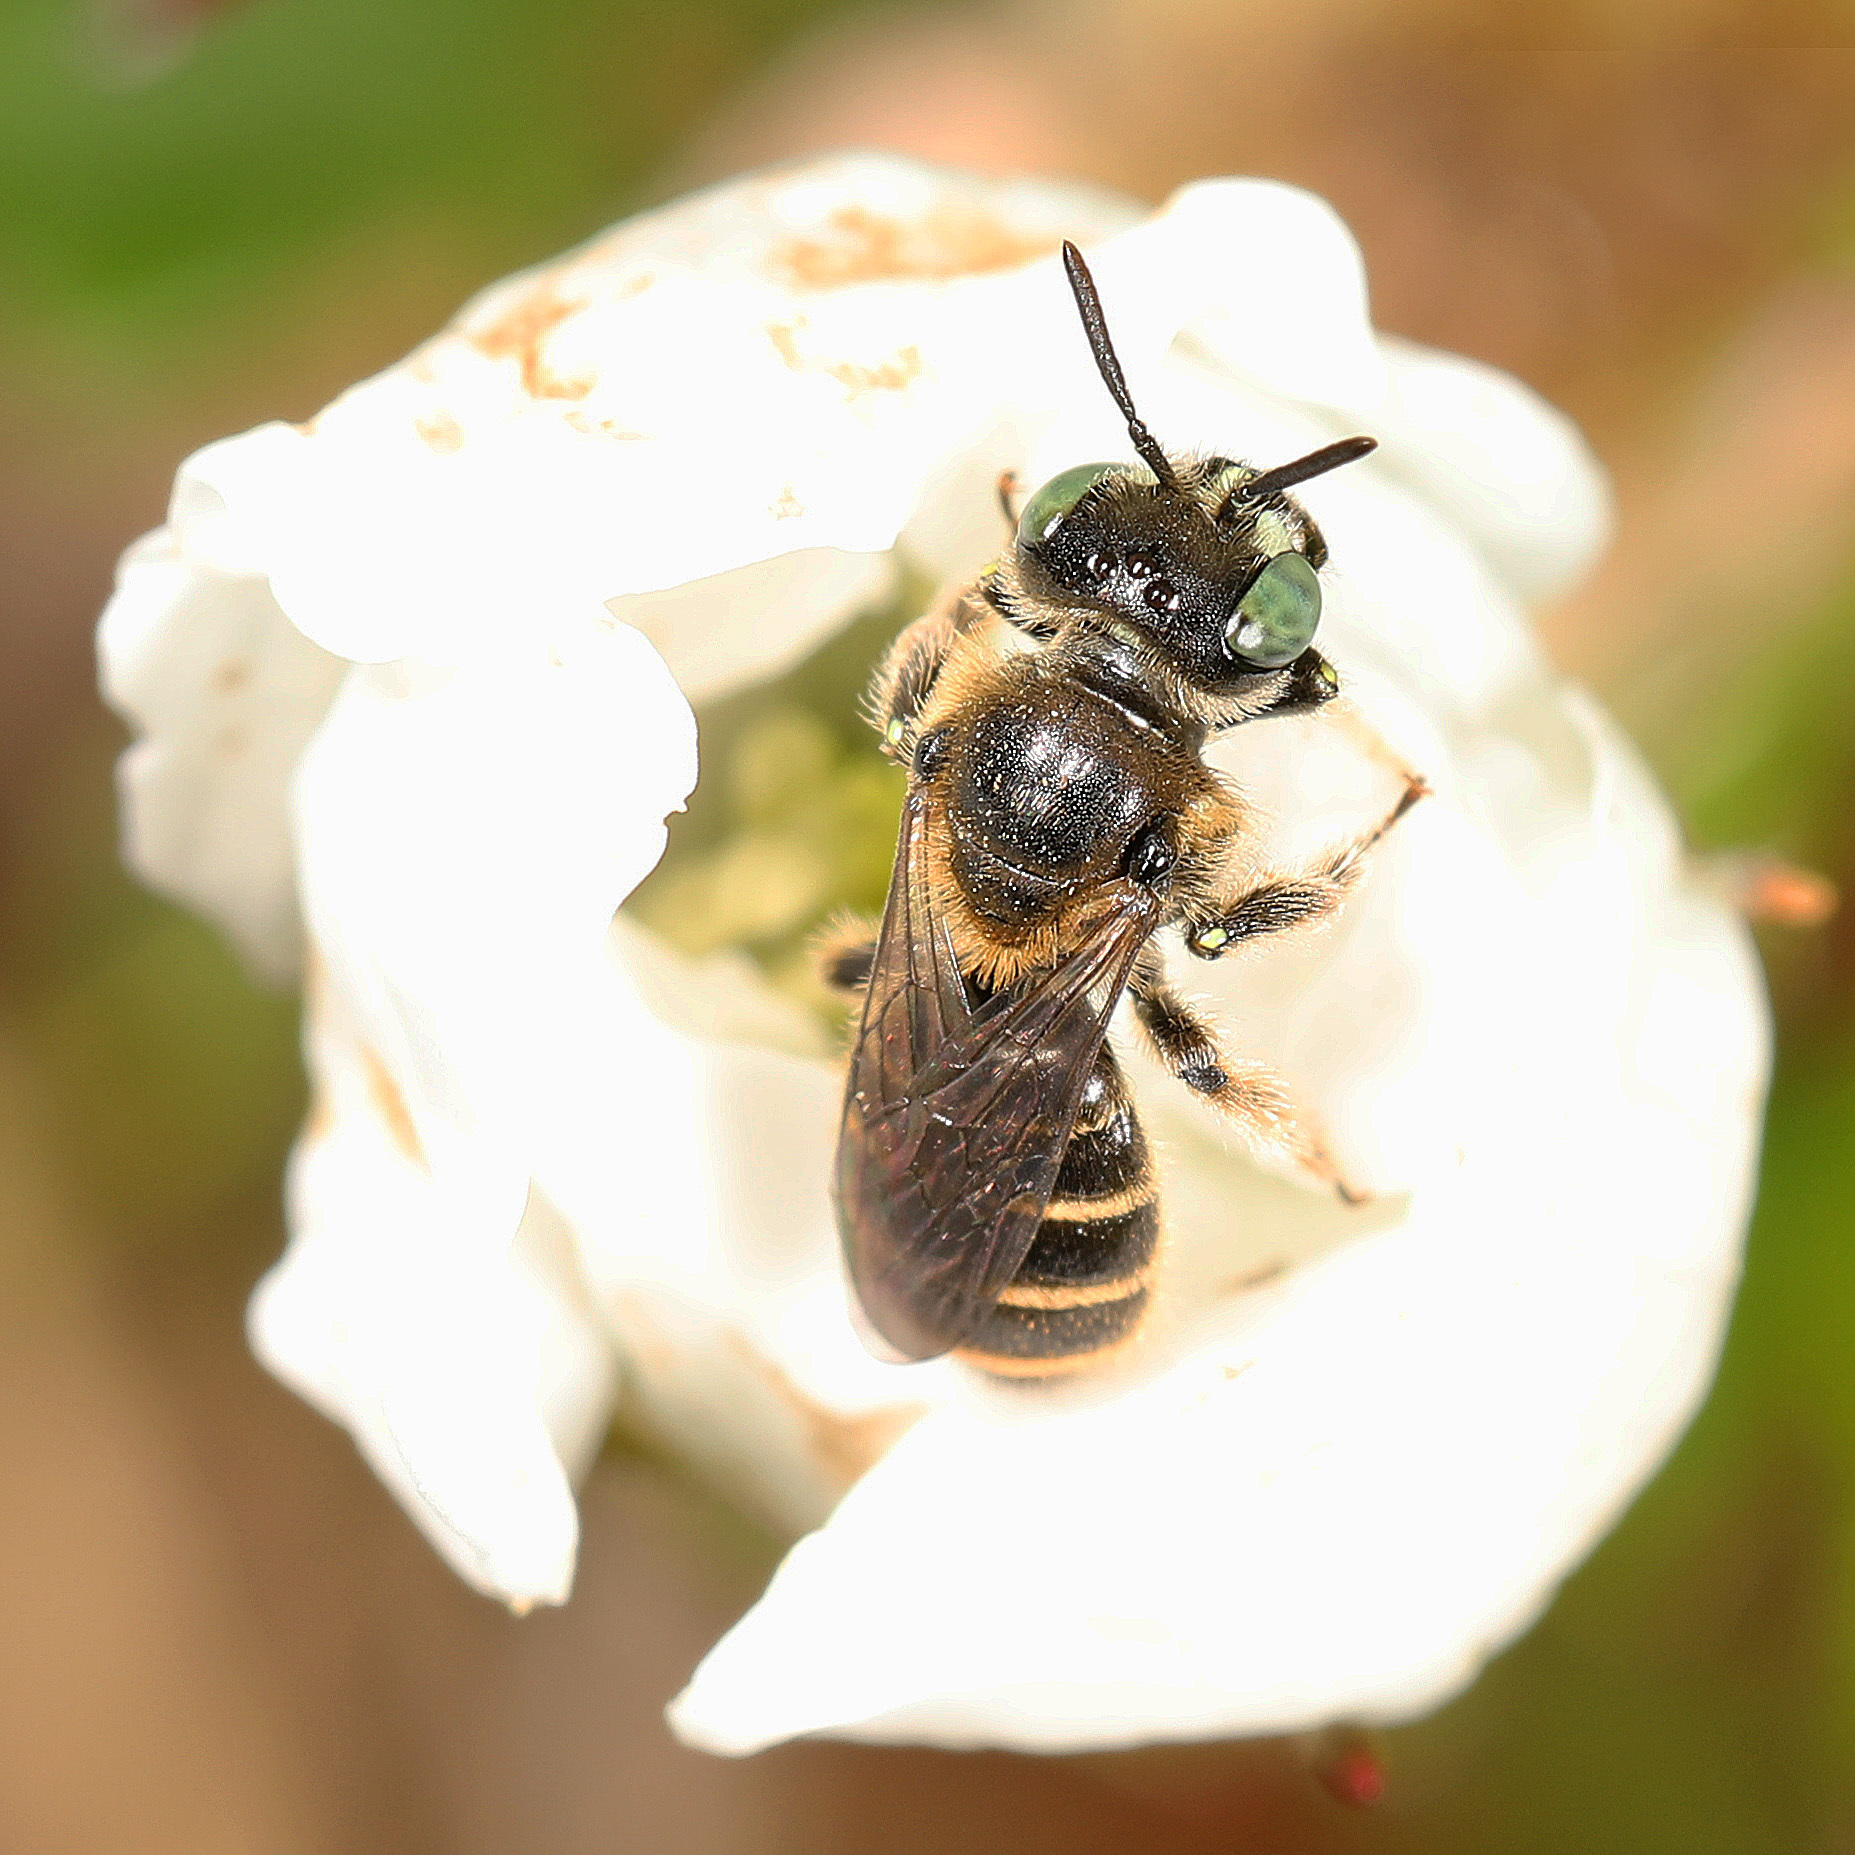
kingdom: Animalia
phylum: Arthropoda
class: Insecta
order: Hymenoptera
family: Andrenidae
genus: Calliopsis
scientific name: Calliopsis andreniformis
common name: Eastern calliopsis bee
